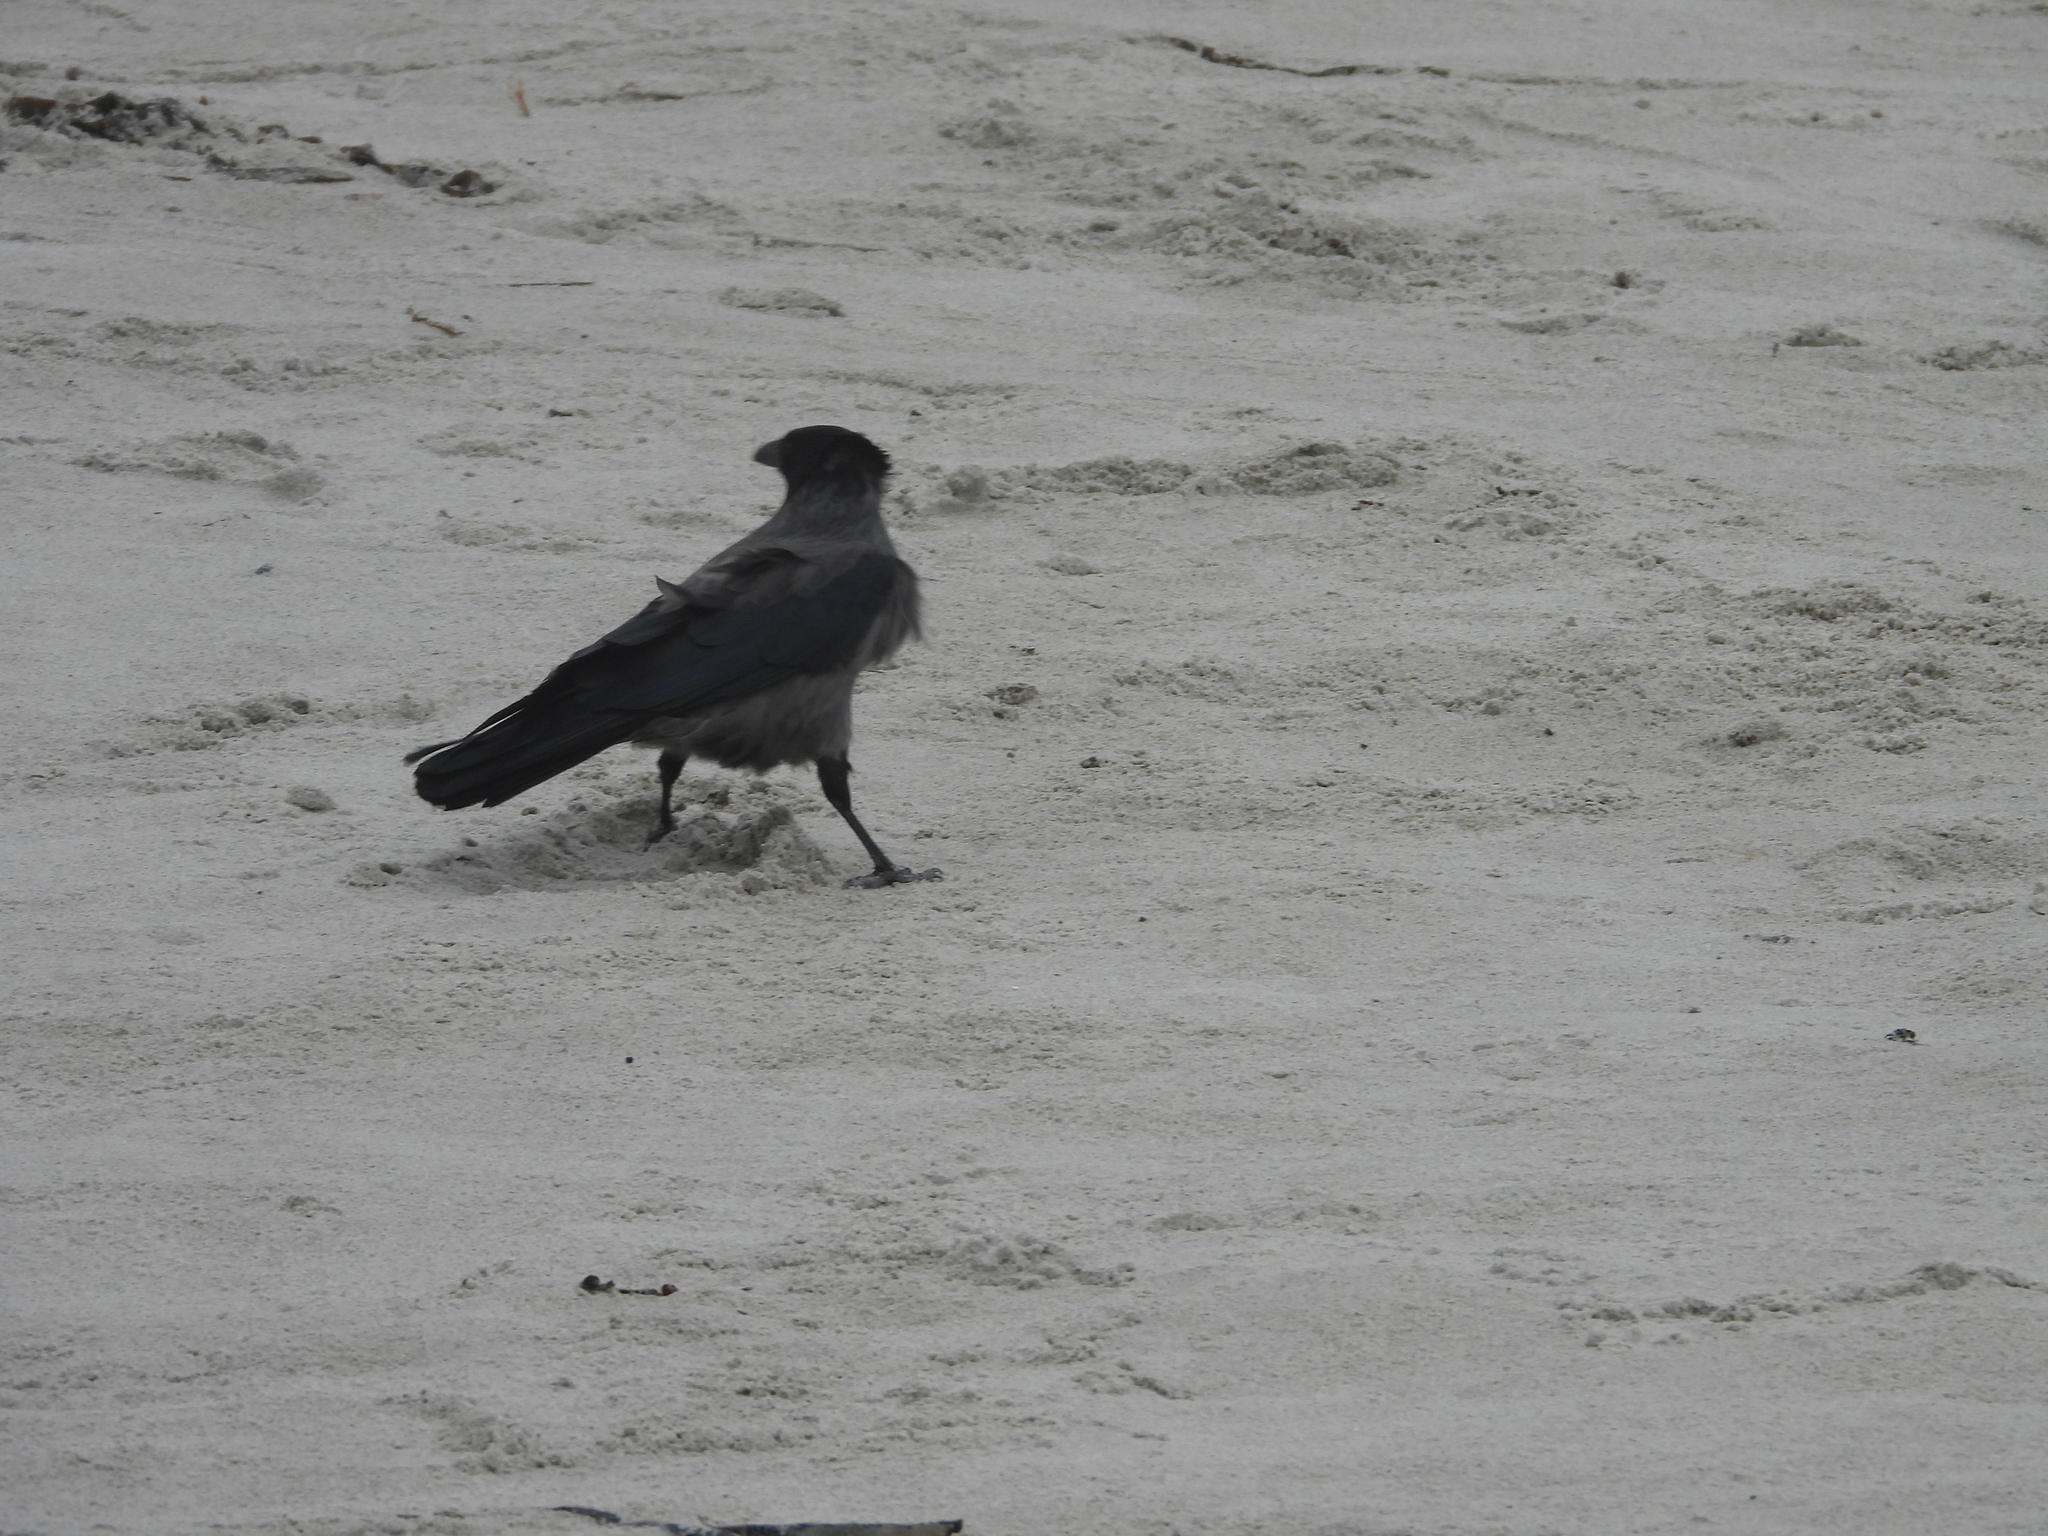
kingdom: Animalia
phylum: Chordata
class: Aves
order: Passeriformes
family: Corvidae
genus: Corvus
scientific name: Corvus cornix
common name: Hooded crow
